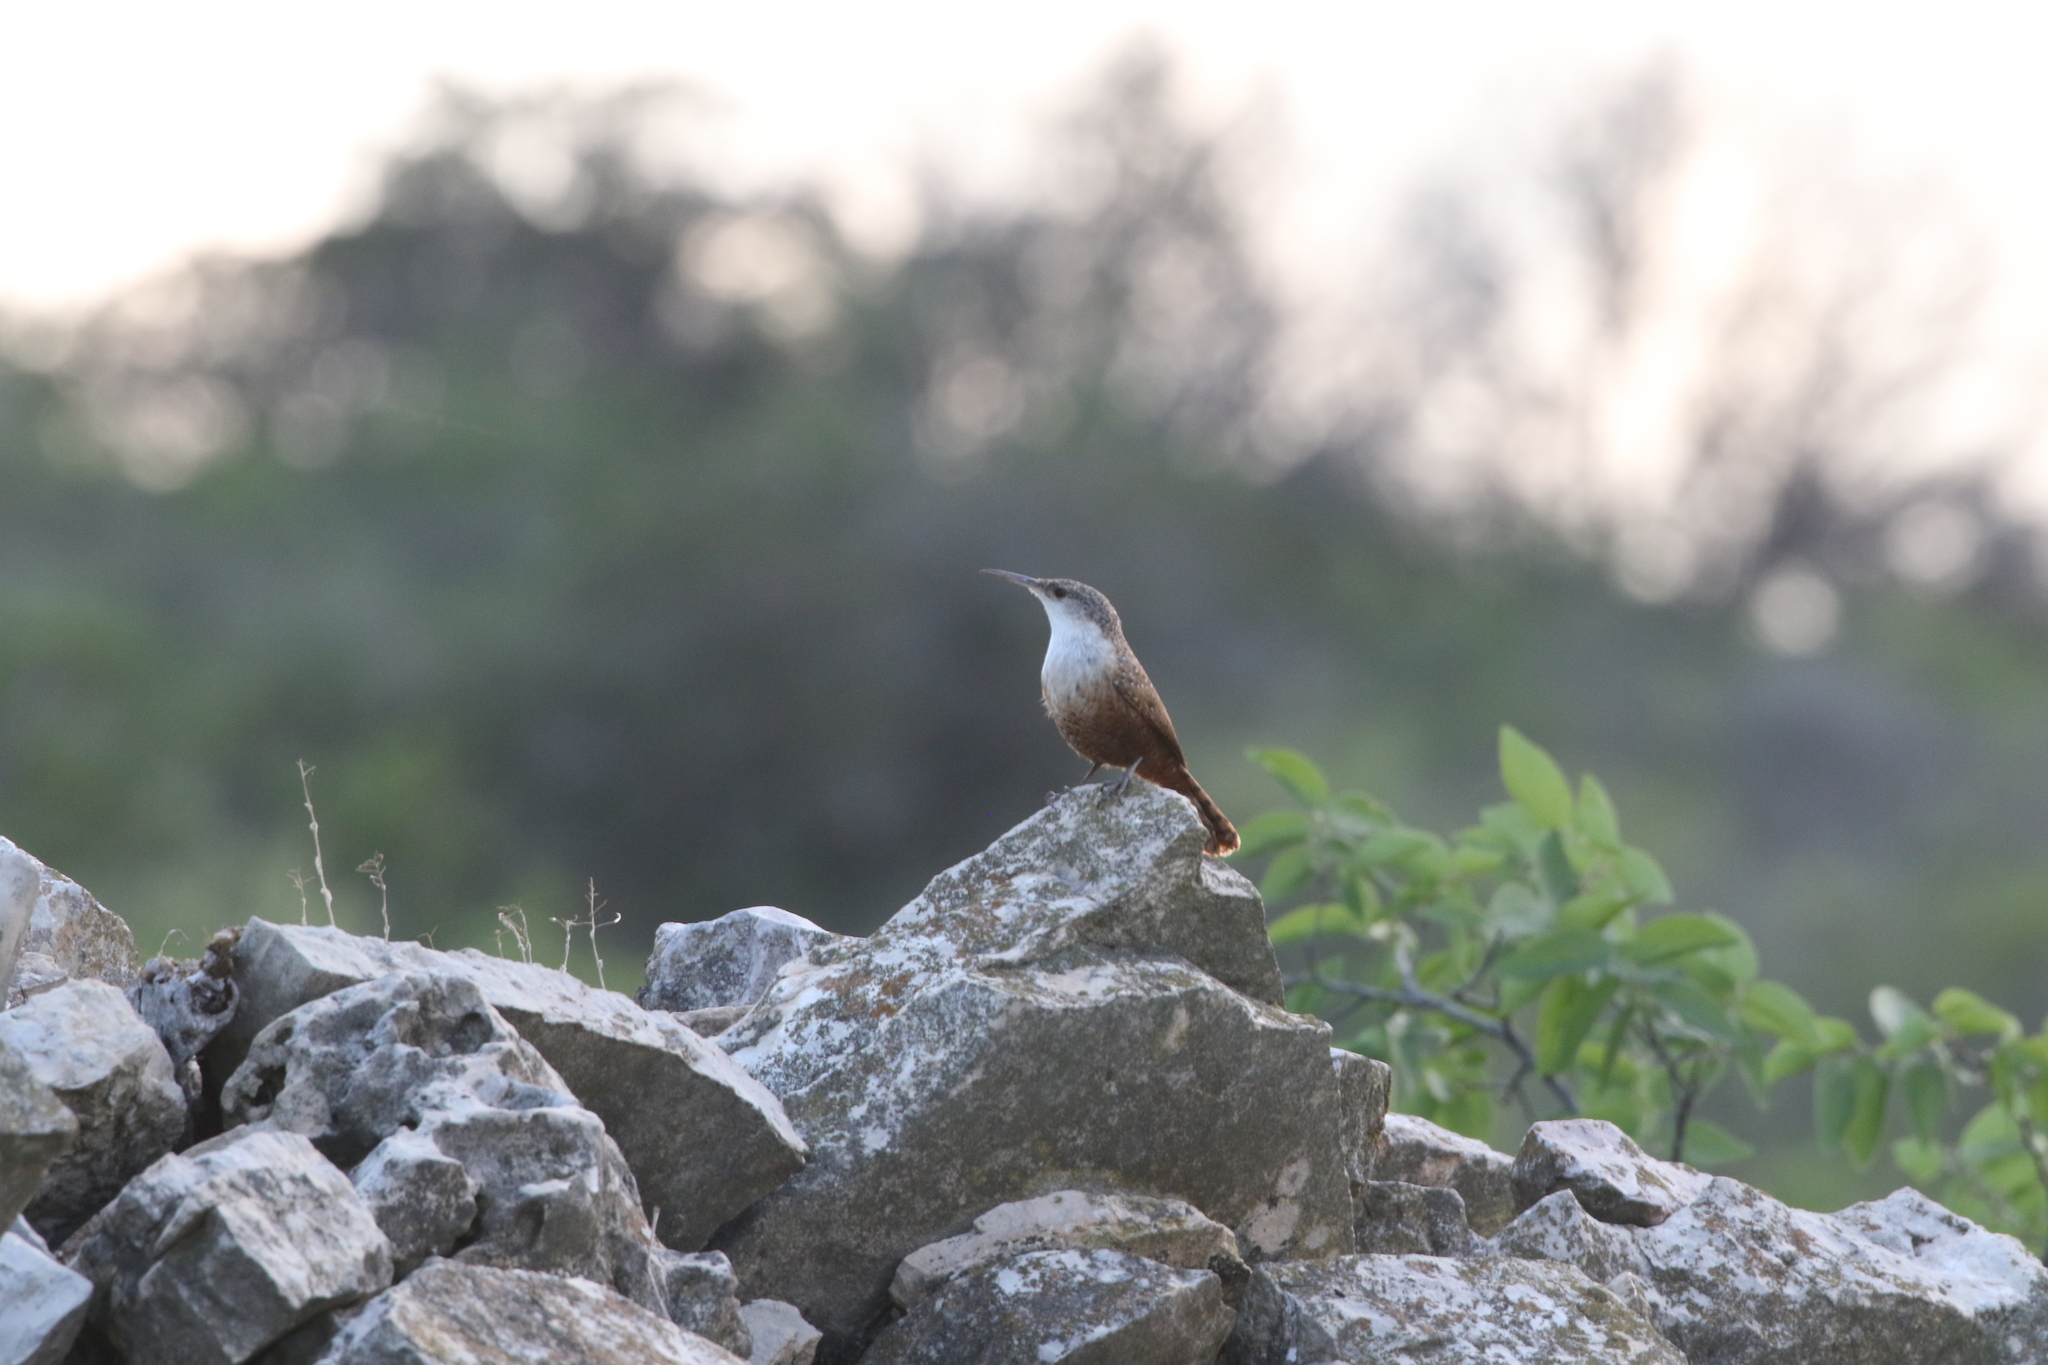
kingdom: Animalia
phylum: Chordata
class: Aves
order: Passeriformes
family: Troglodytidae
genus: Catherpes
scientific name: Catherpes mexicanus
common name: Canyon wren
